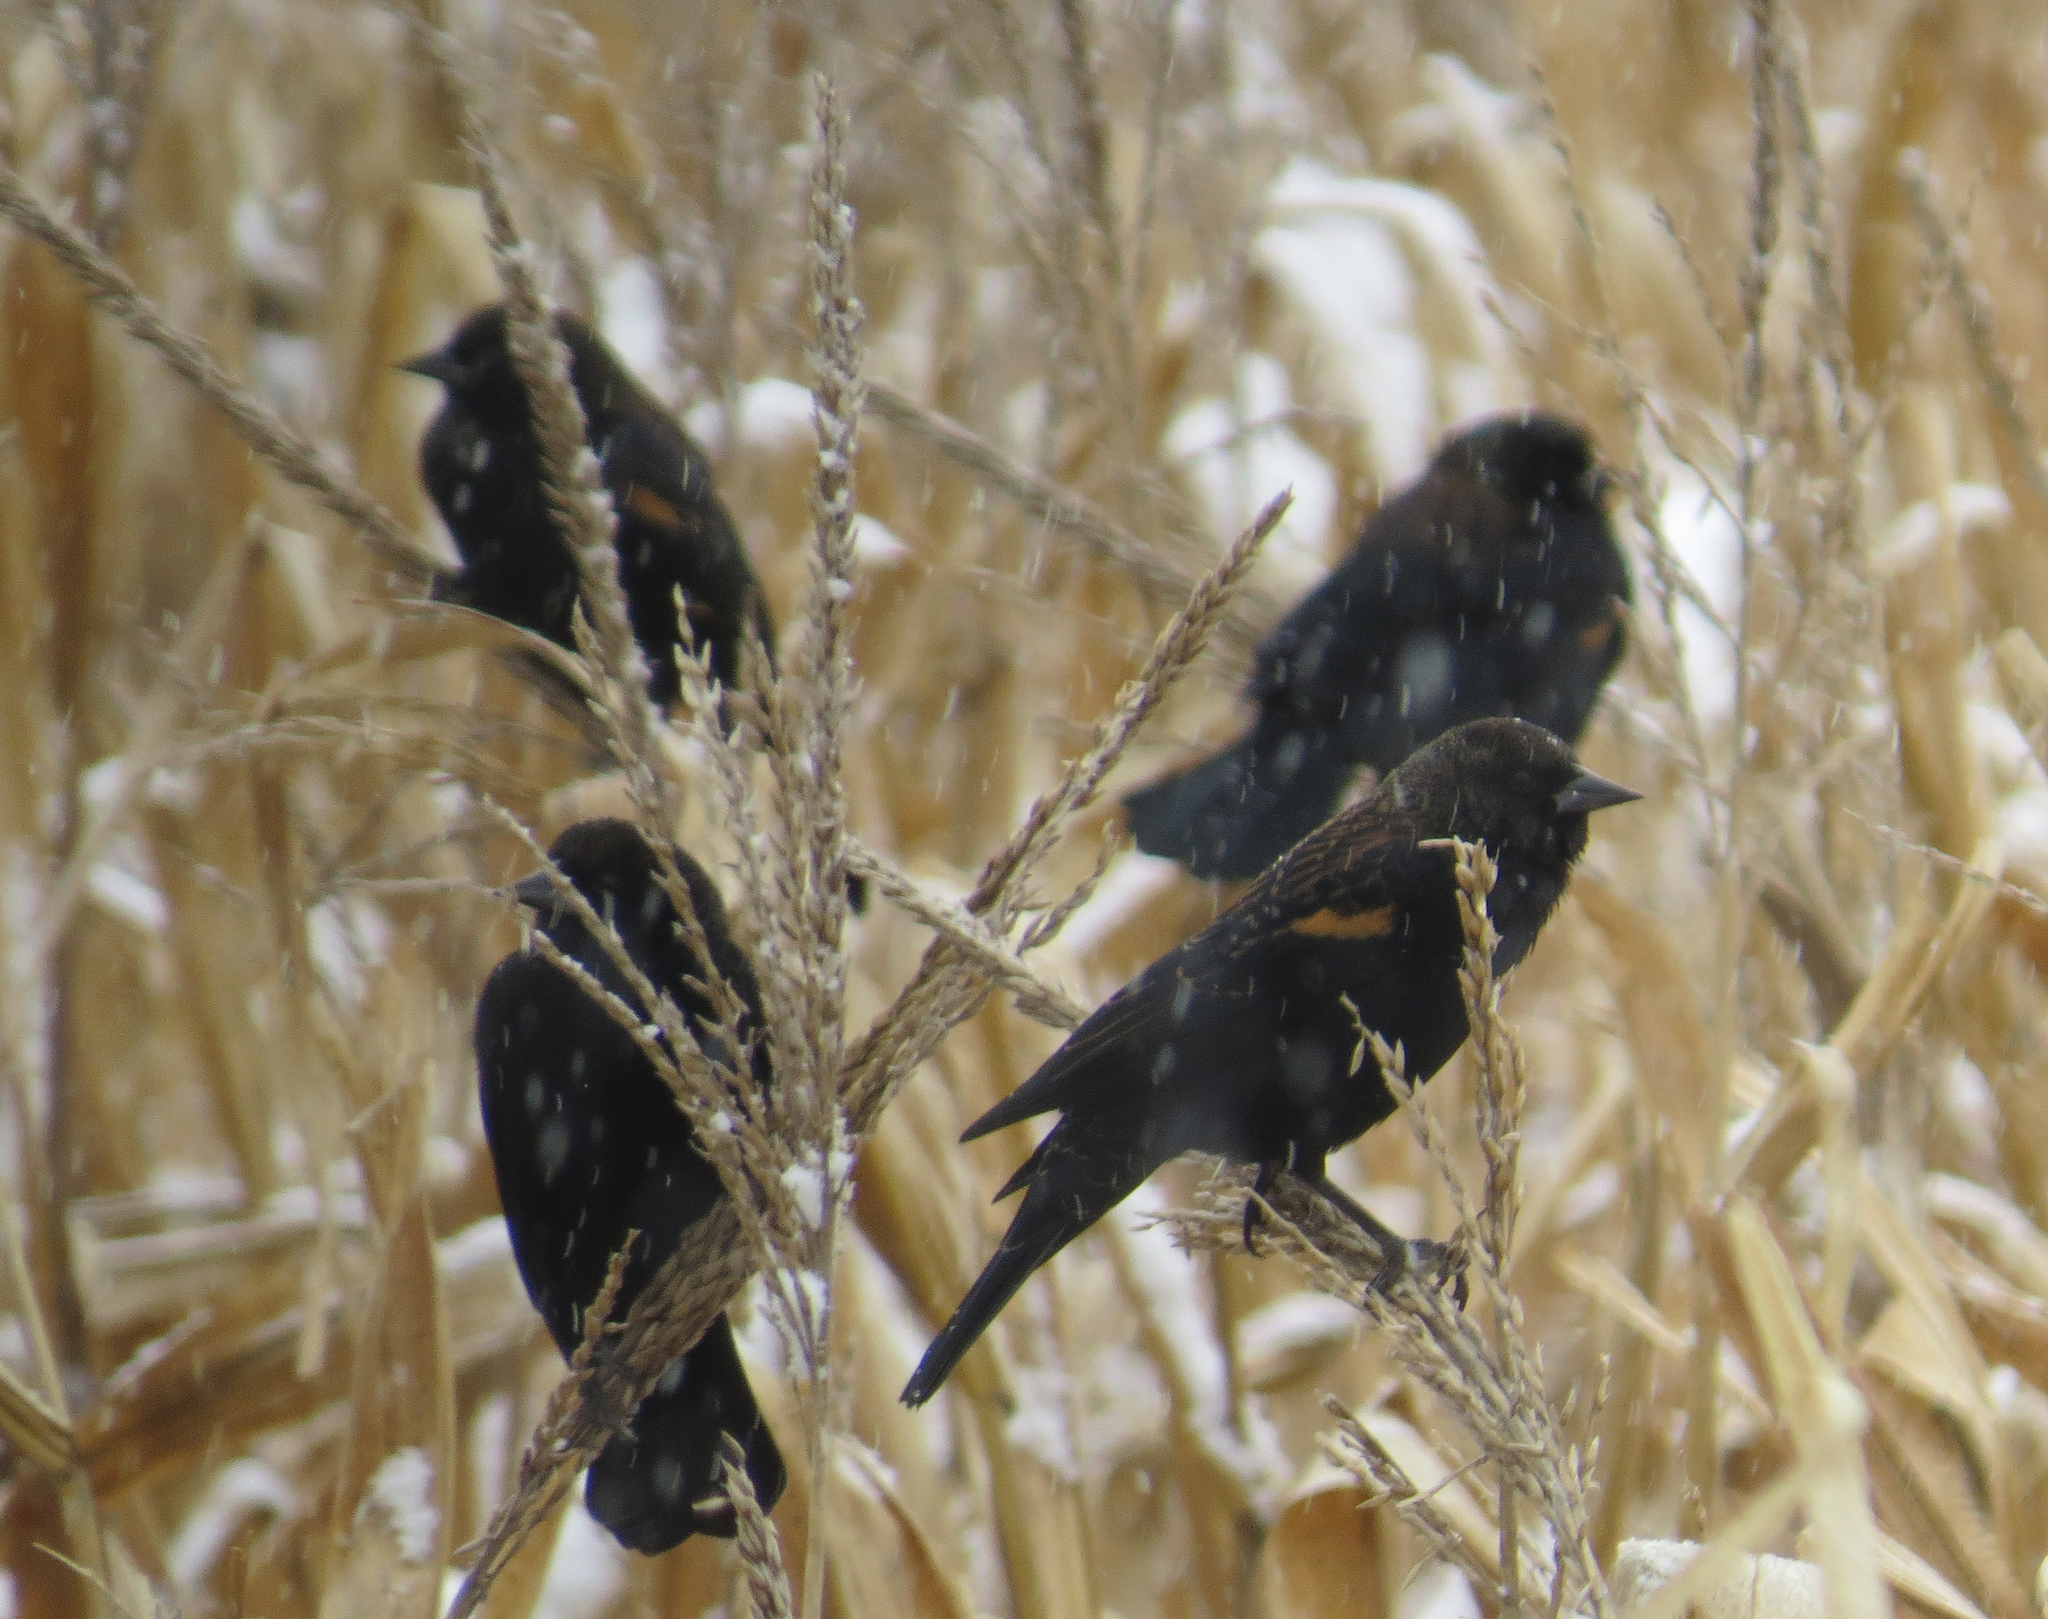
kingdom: Animalia
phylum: Chordata
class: Aves
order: Passeriformes
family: Icteridae
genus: Agelaius
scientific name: Agelaius phoeniceus
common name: Red-winged blackbird
